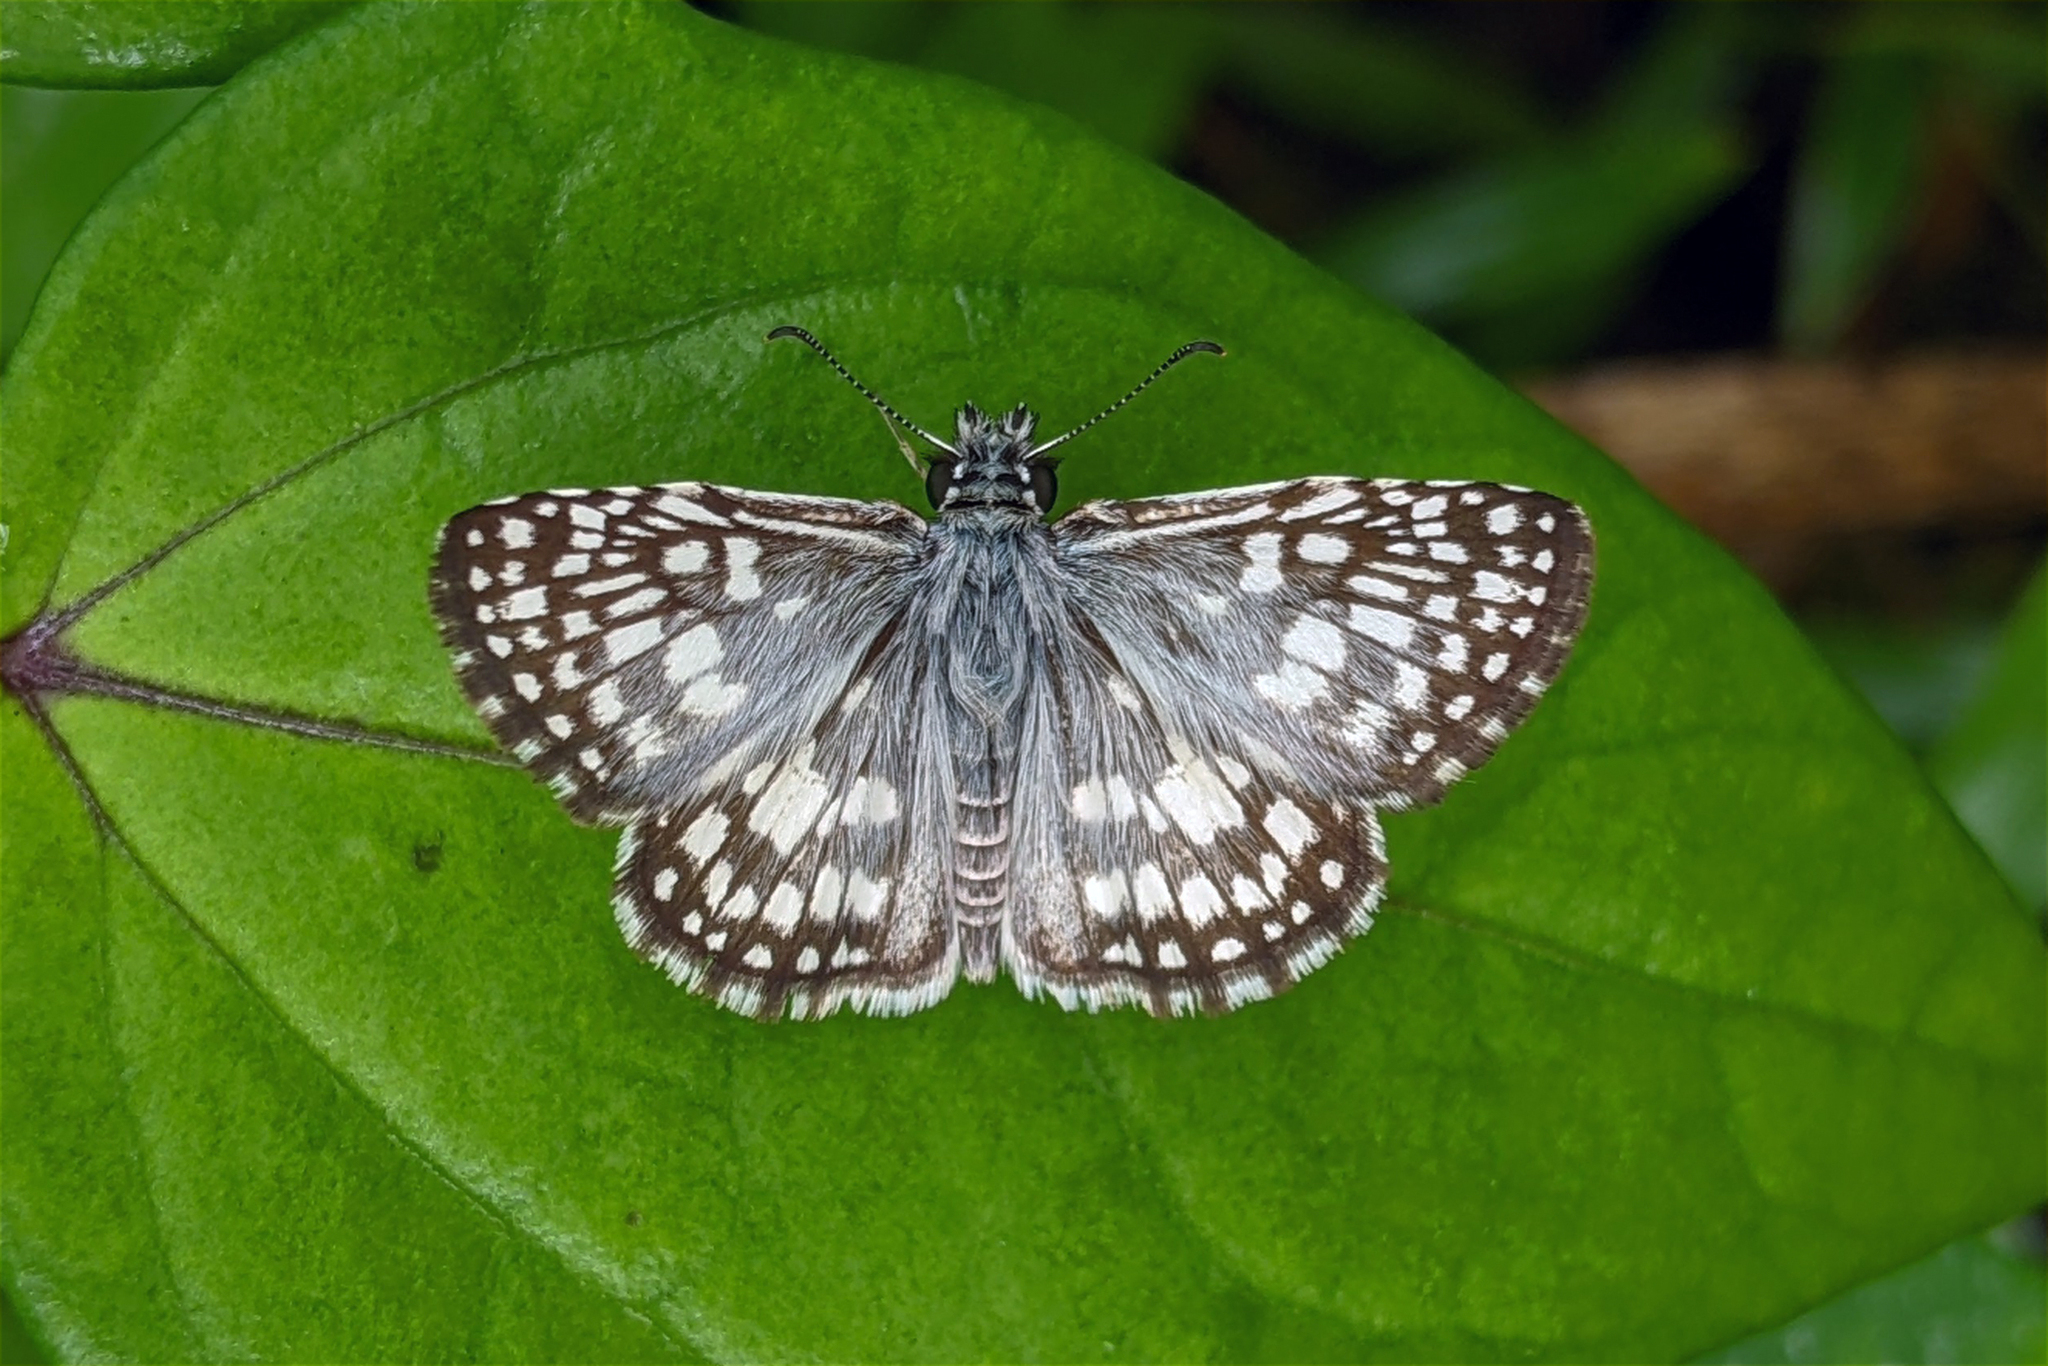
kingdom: Animalia
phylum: Arthropoda
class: Insecta
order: Lepidoptera
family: Hesperiidae
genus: Pyrgus
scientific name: Pyrgus oileus
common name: Tropical checkered-skipper
